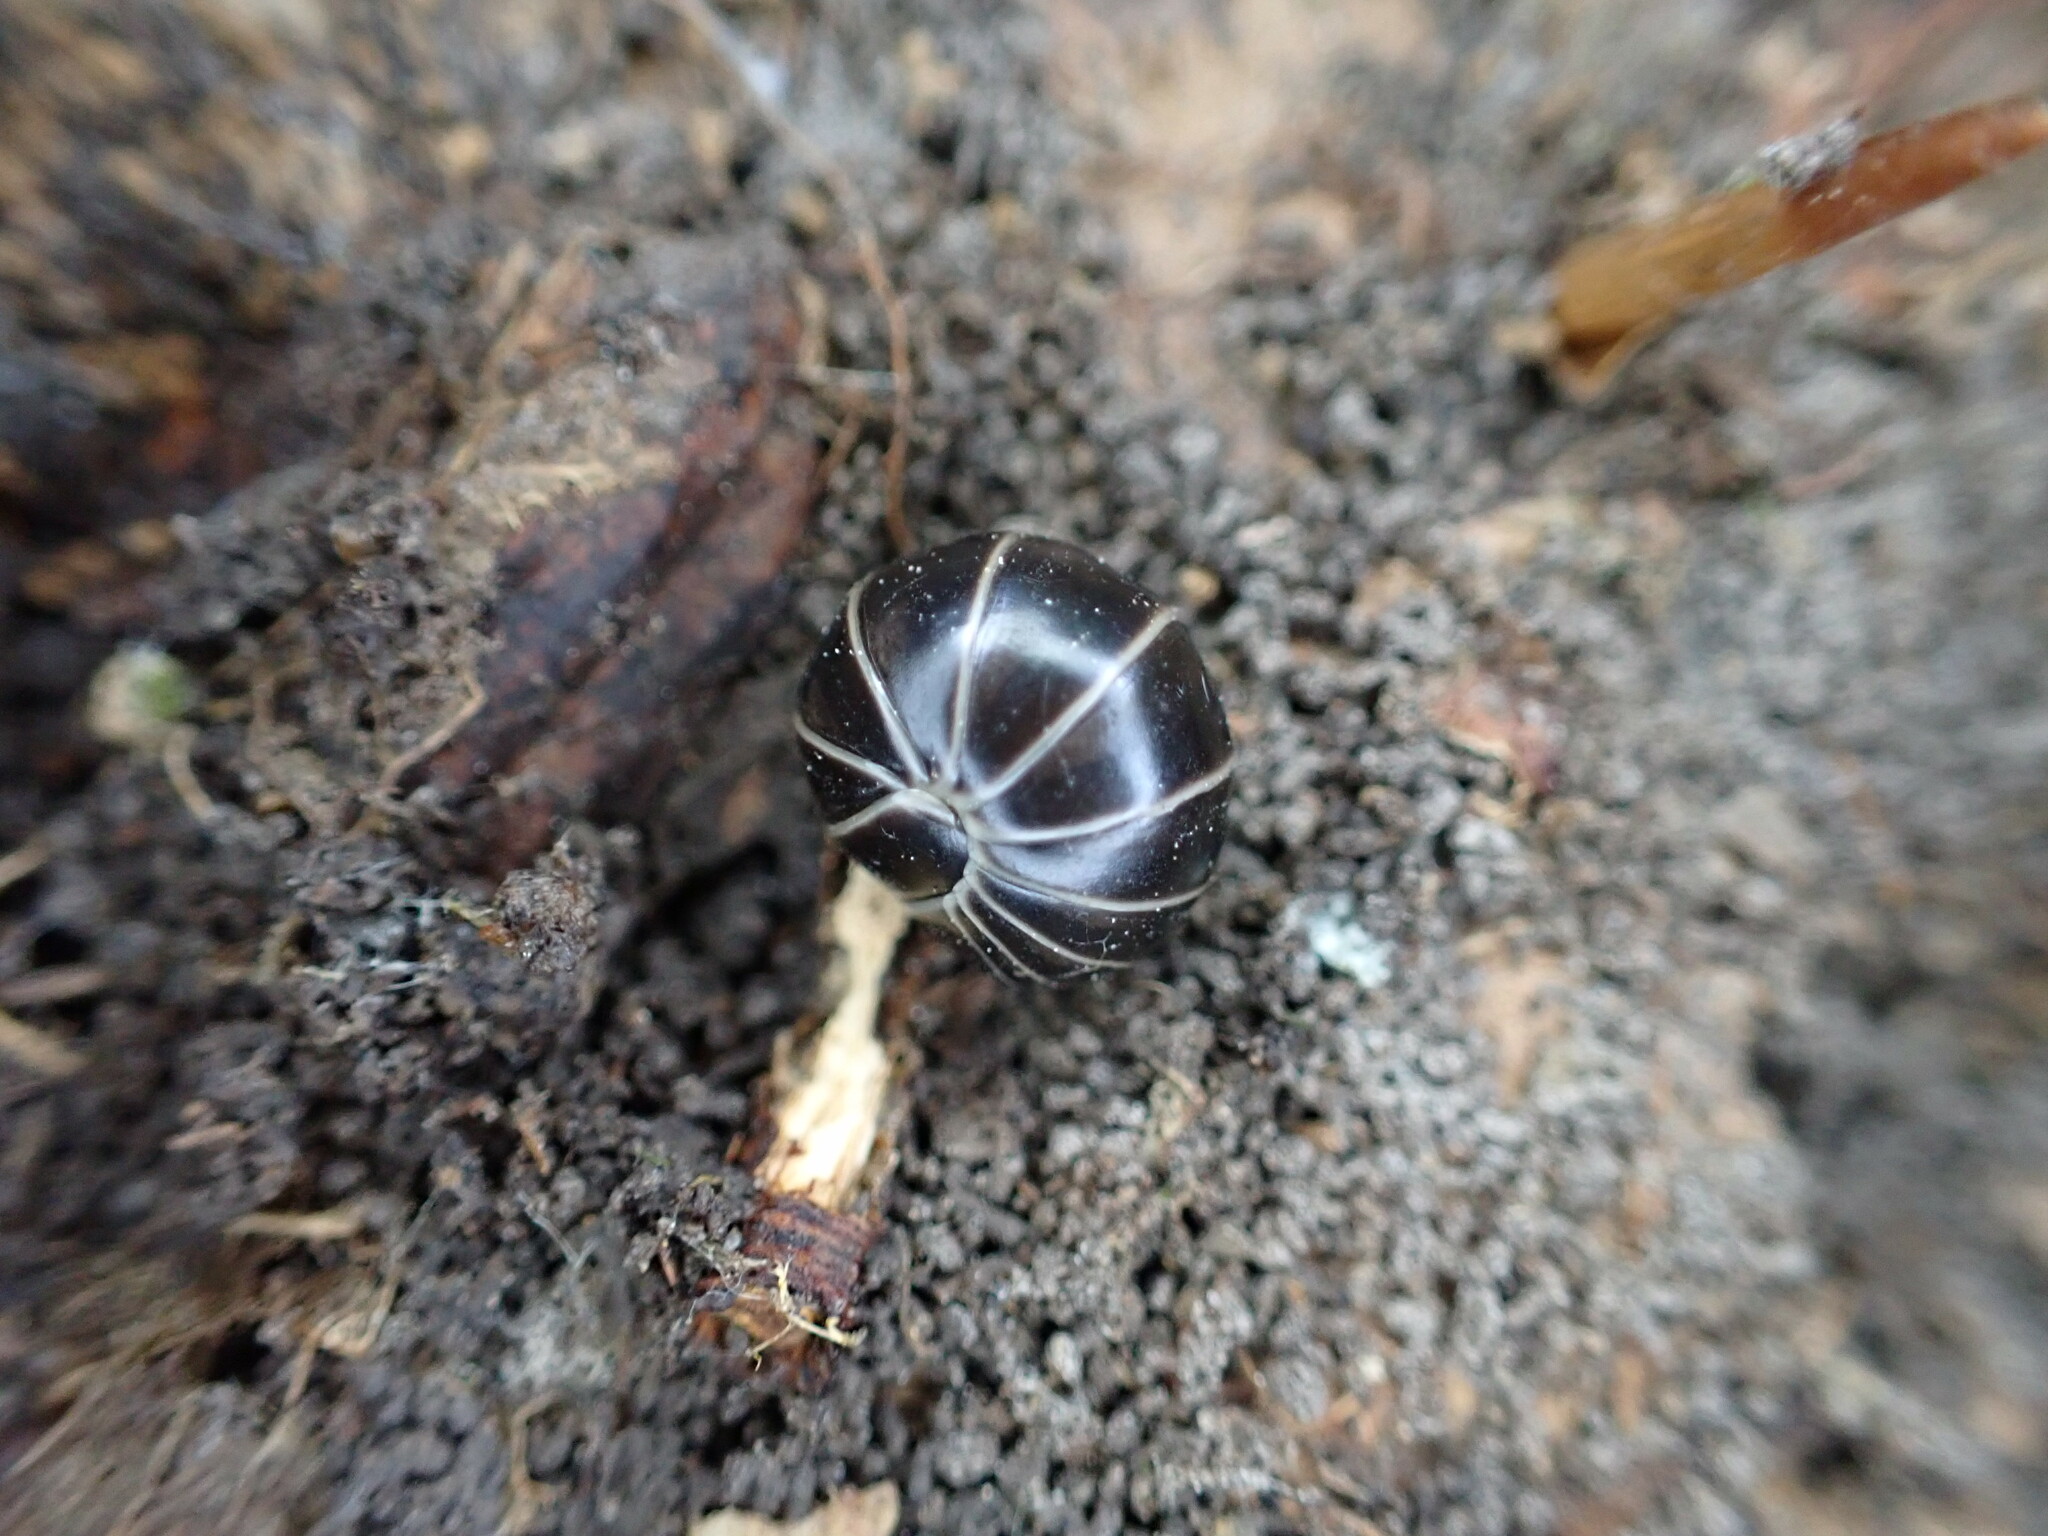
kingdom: Animalia
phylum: Arthropoda
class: Diplopoda
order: Glomerida
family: Glomeridae
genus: Glomeris
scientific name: Glomeris marginata
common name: Bordered pill millipede
